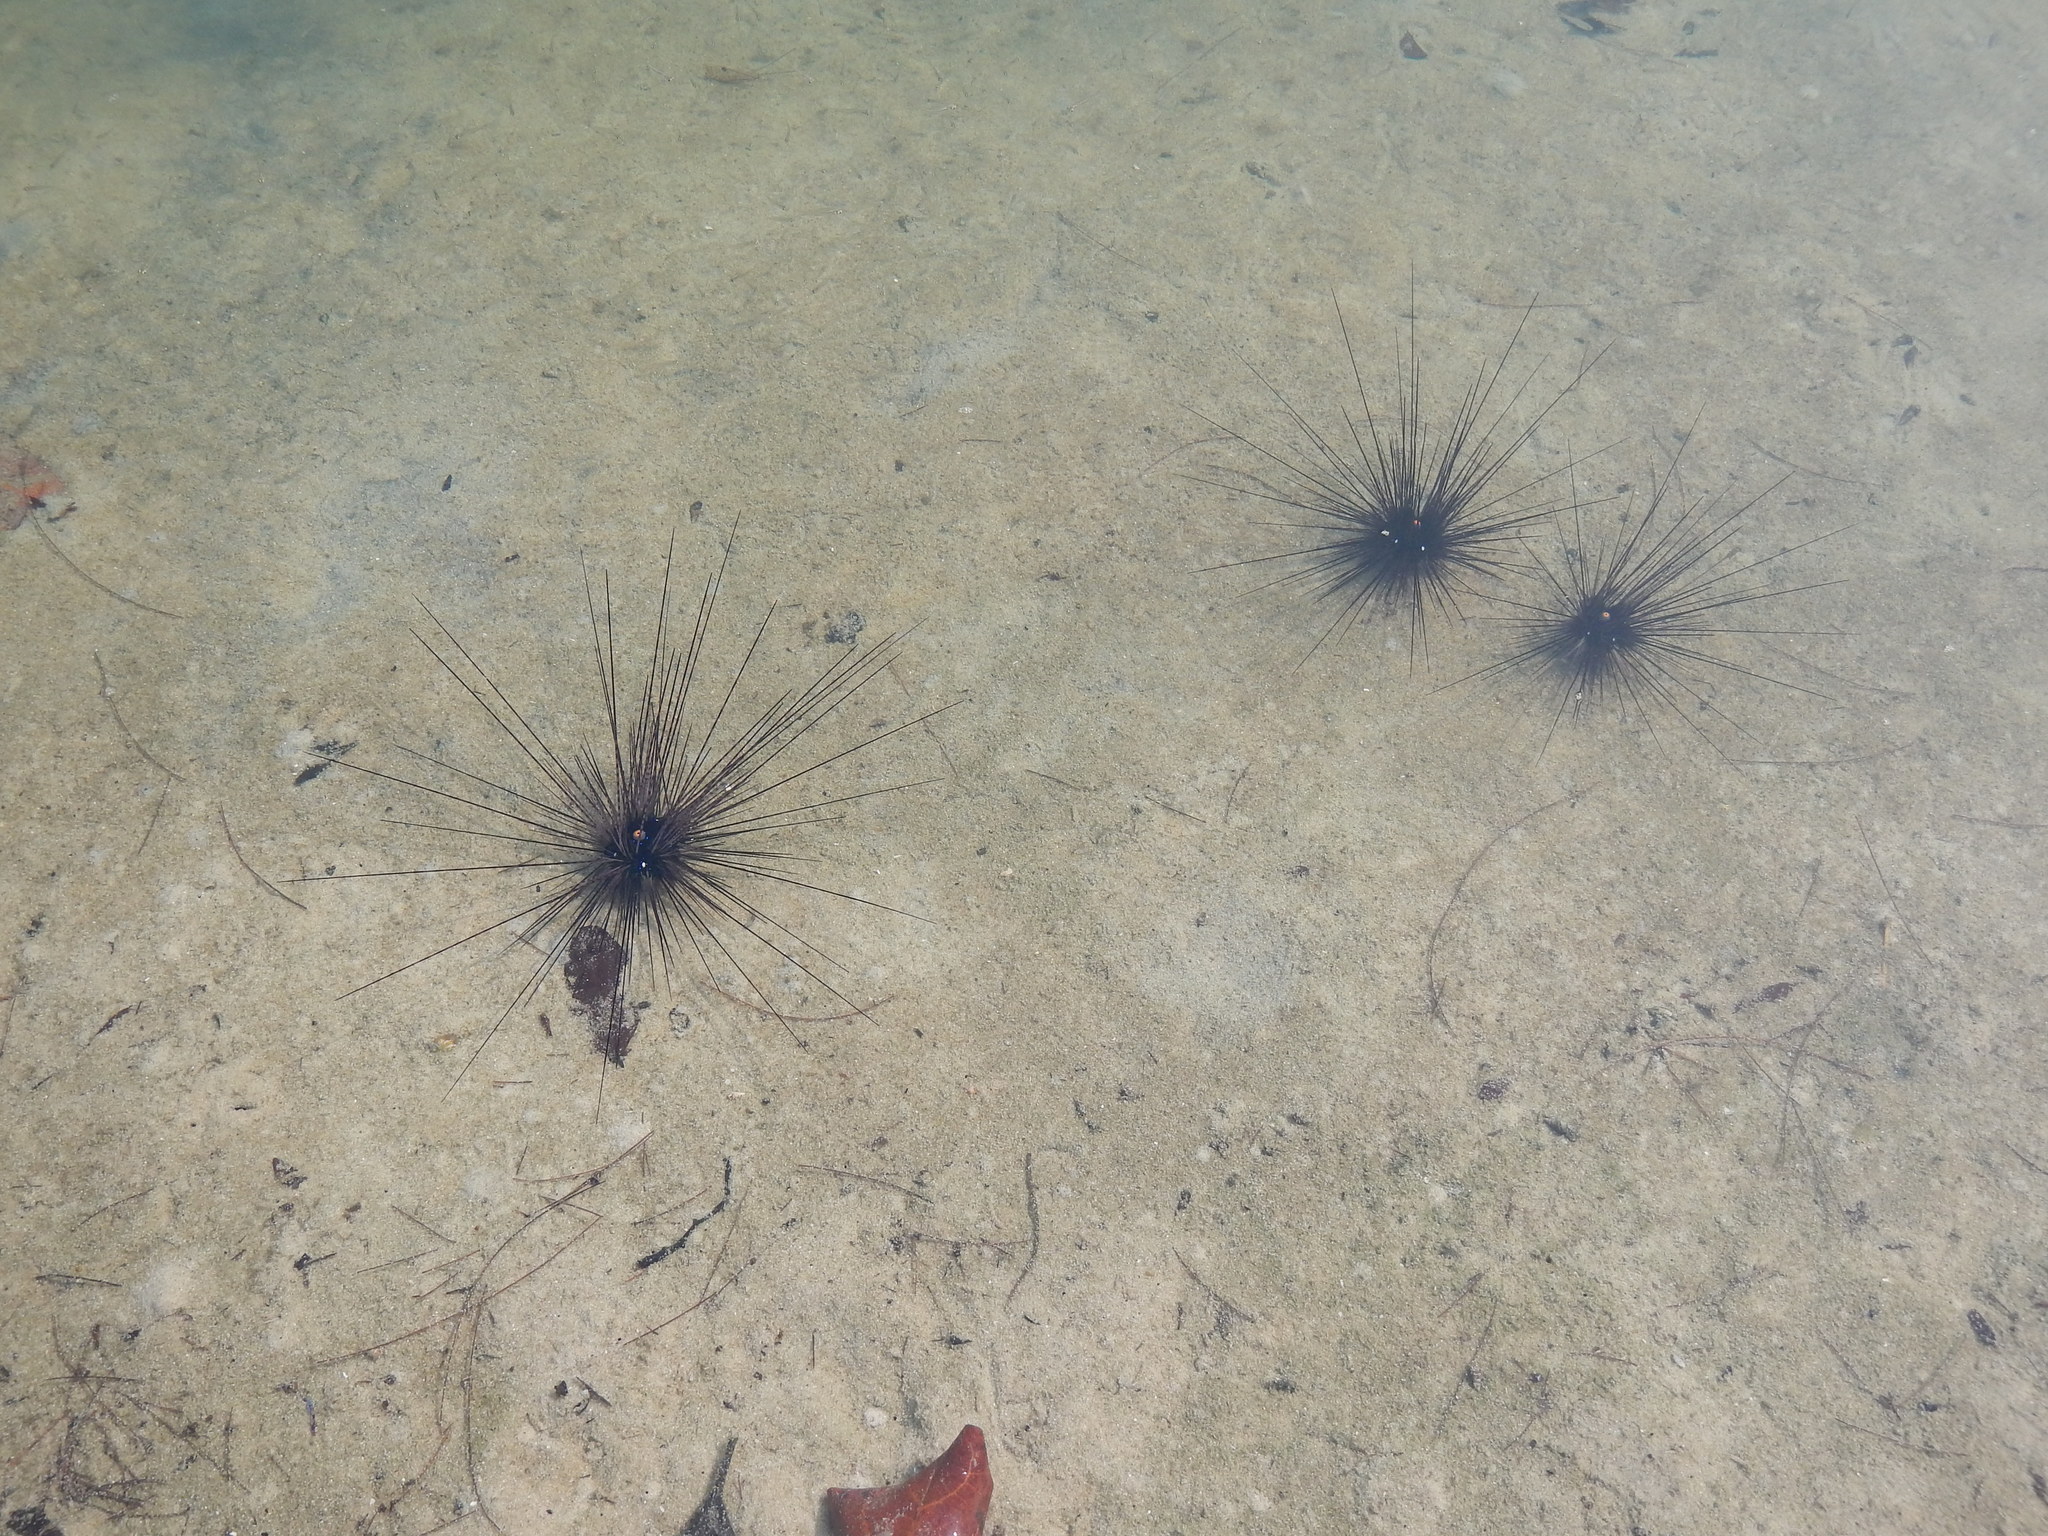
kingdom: Animalia
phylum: Echinodermata
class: Echinoidea
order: Diadematoida
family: Diadematidae
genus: Diadema
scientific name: Diadema setosum
